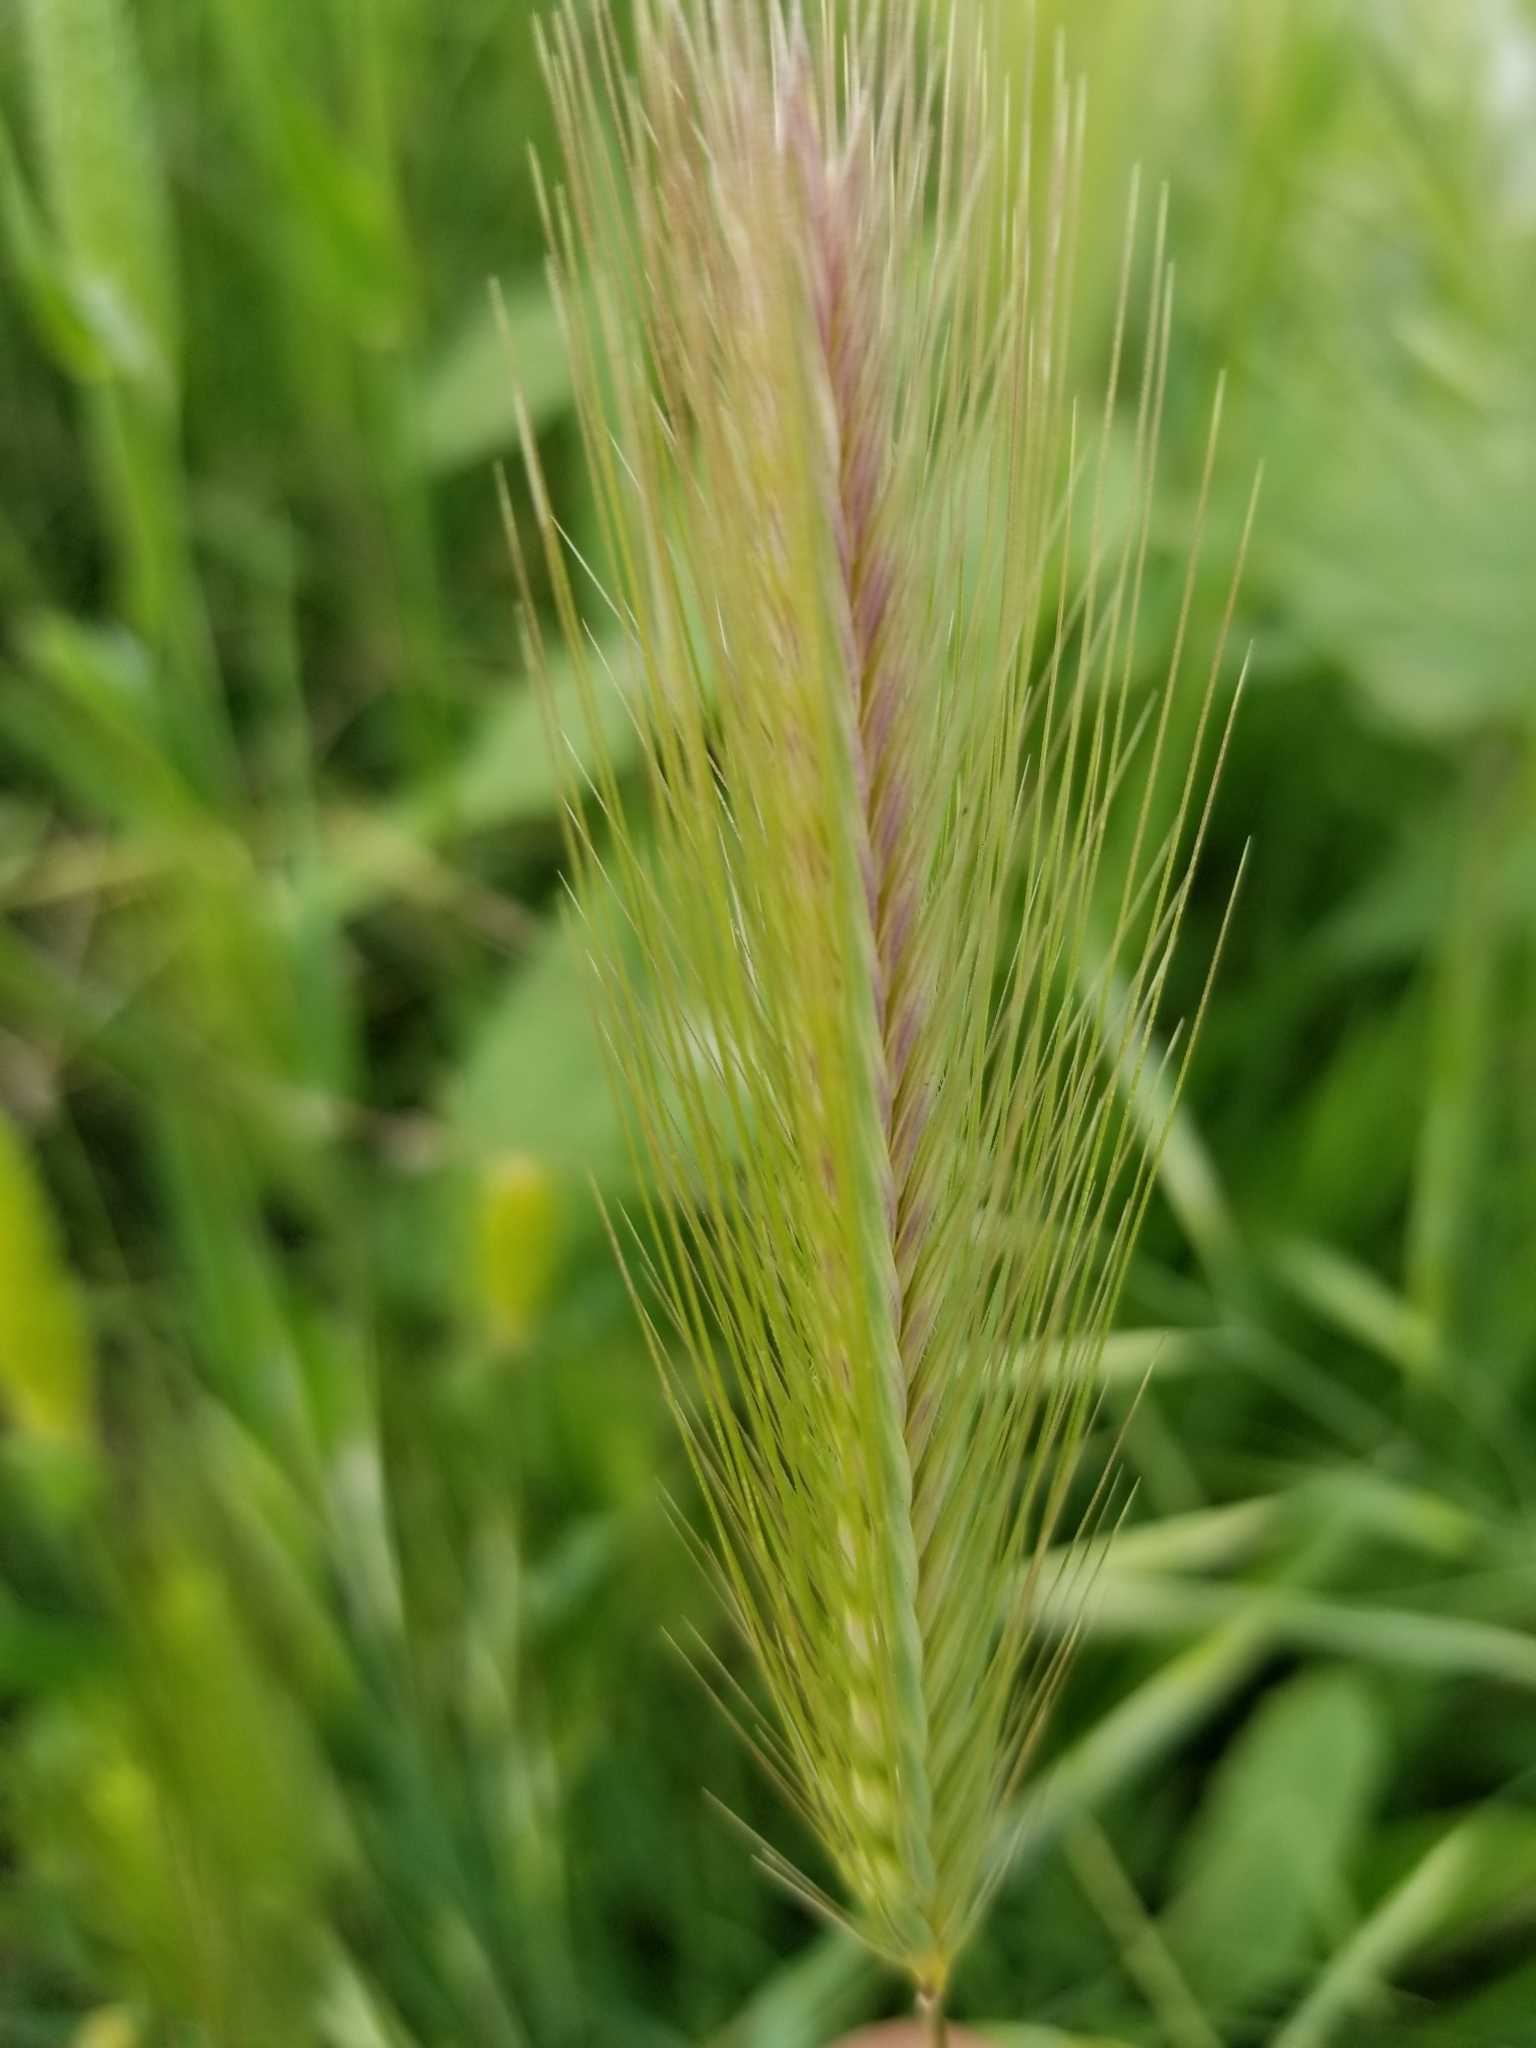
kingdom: Plantae
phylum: Tracheophyta
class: Liliopsida
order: Poales
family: Poaceae
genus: Hordeum
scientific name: Hordeum murinum
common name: Wall barley
